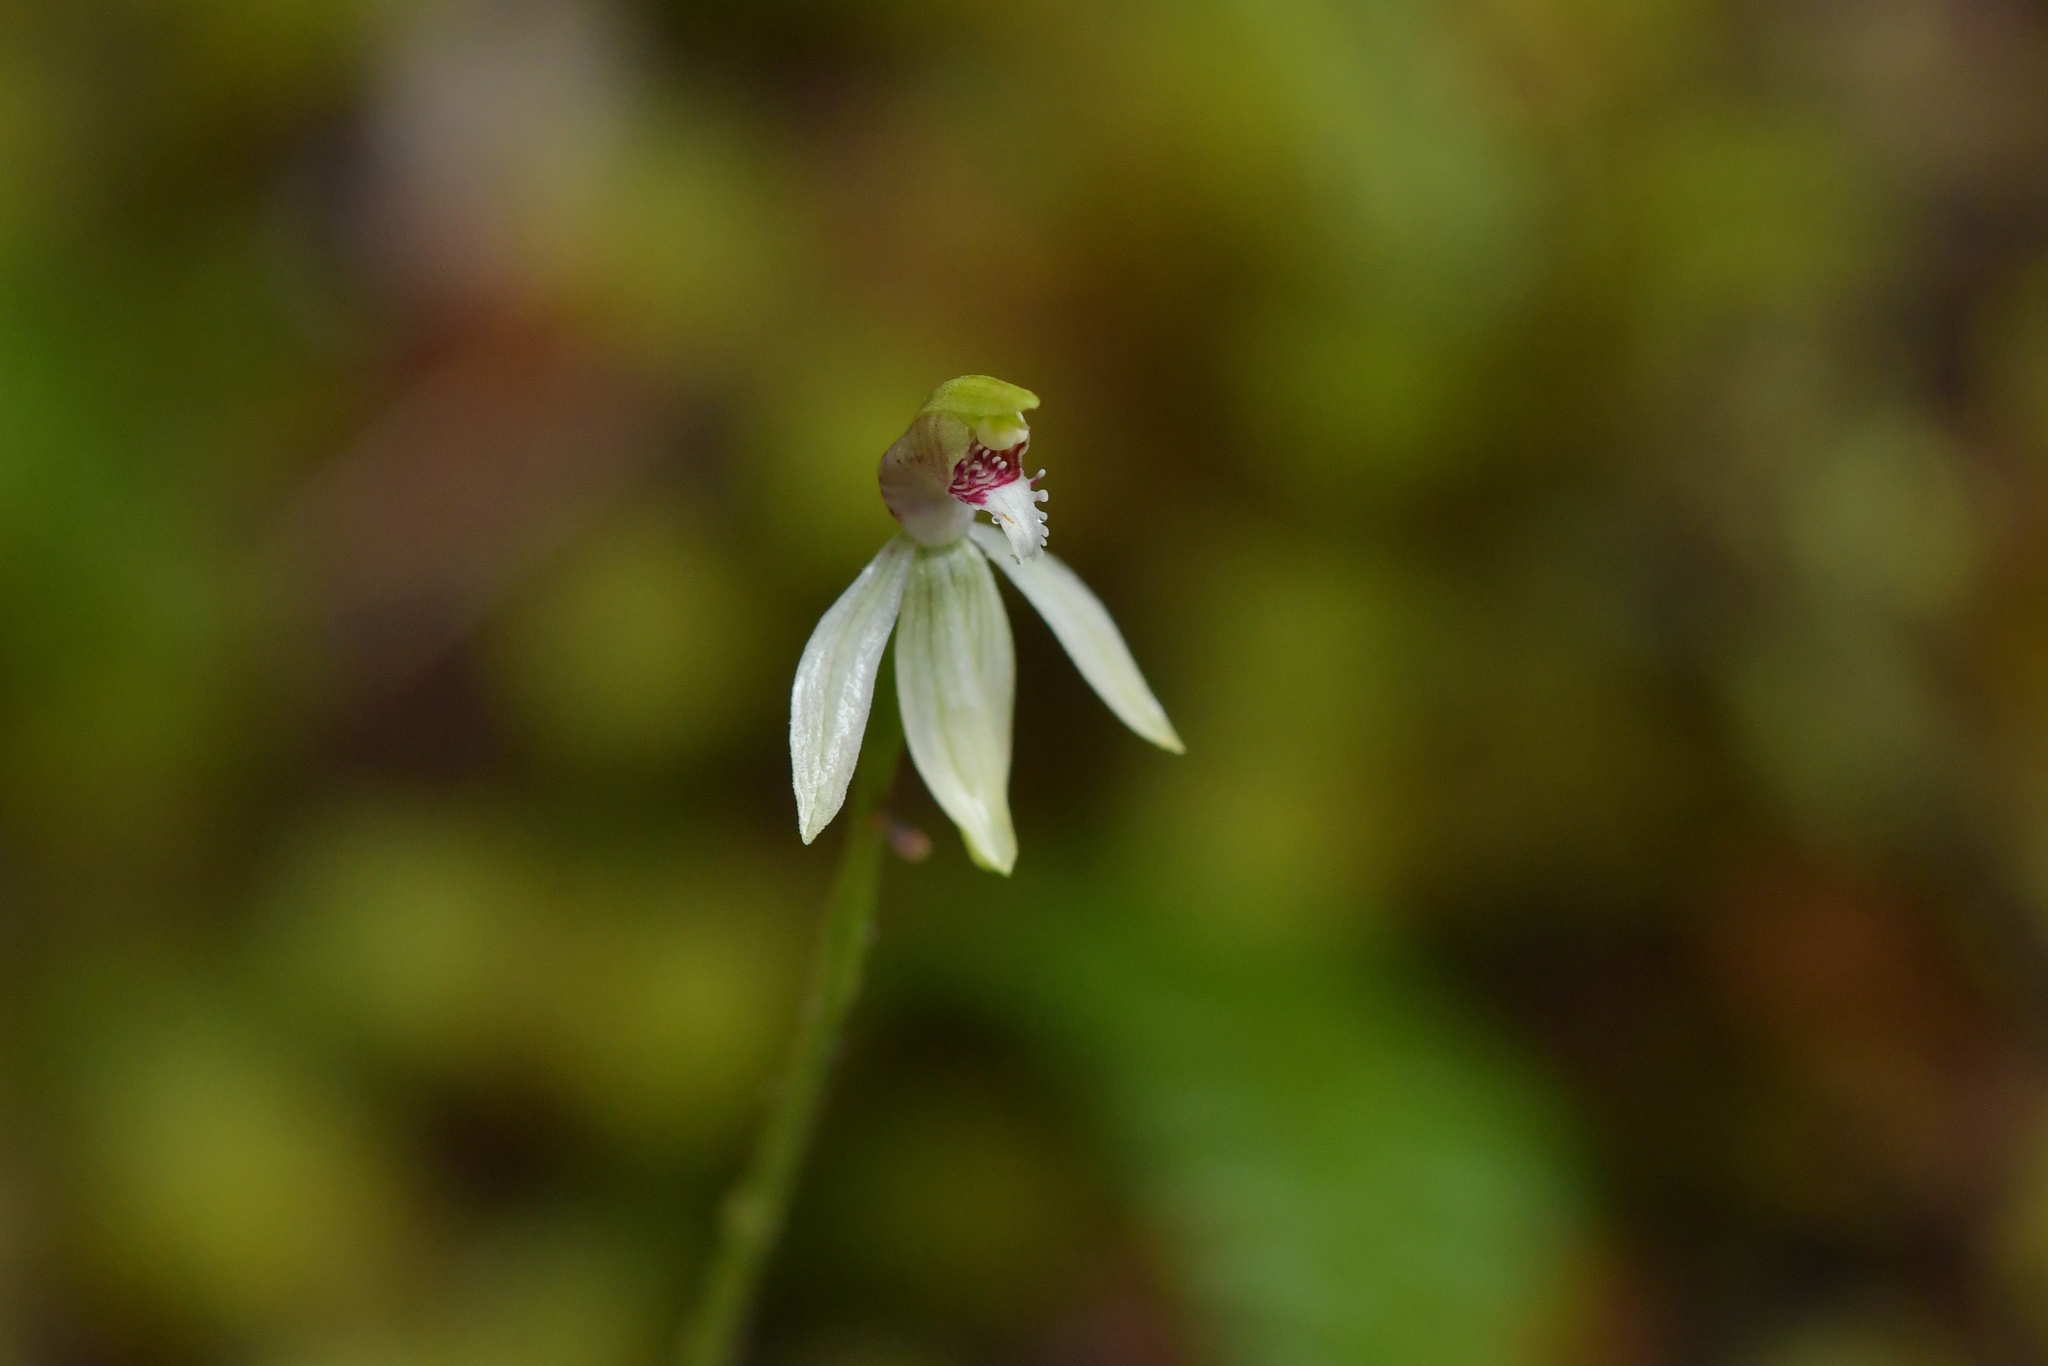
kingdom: Plantae
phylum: Tracheophyta
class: Liliopsida
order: Asparagales
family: Orchidaceae
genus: Caladenia
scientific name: Caladenia chlorostyla
